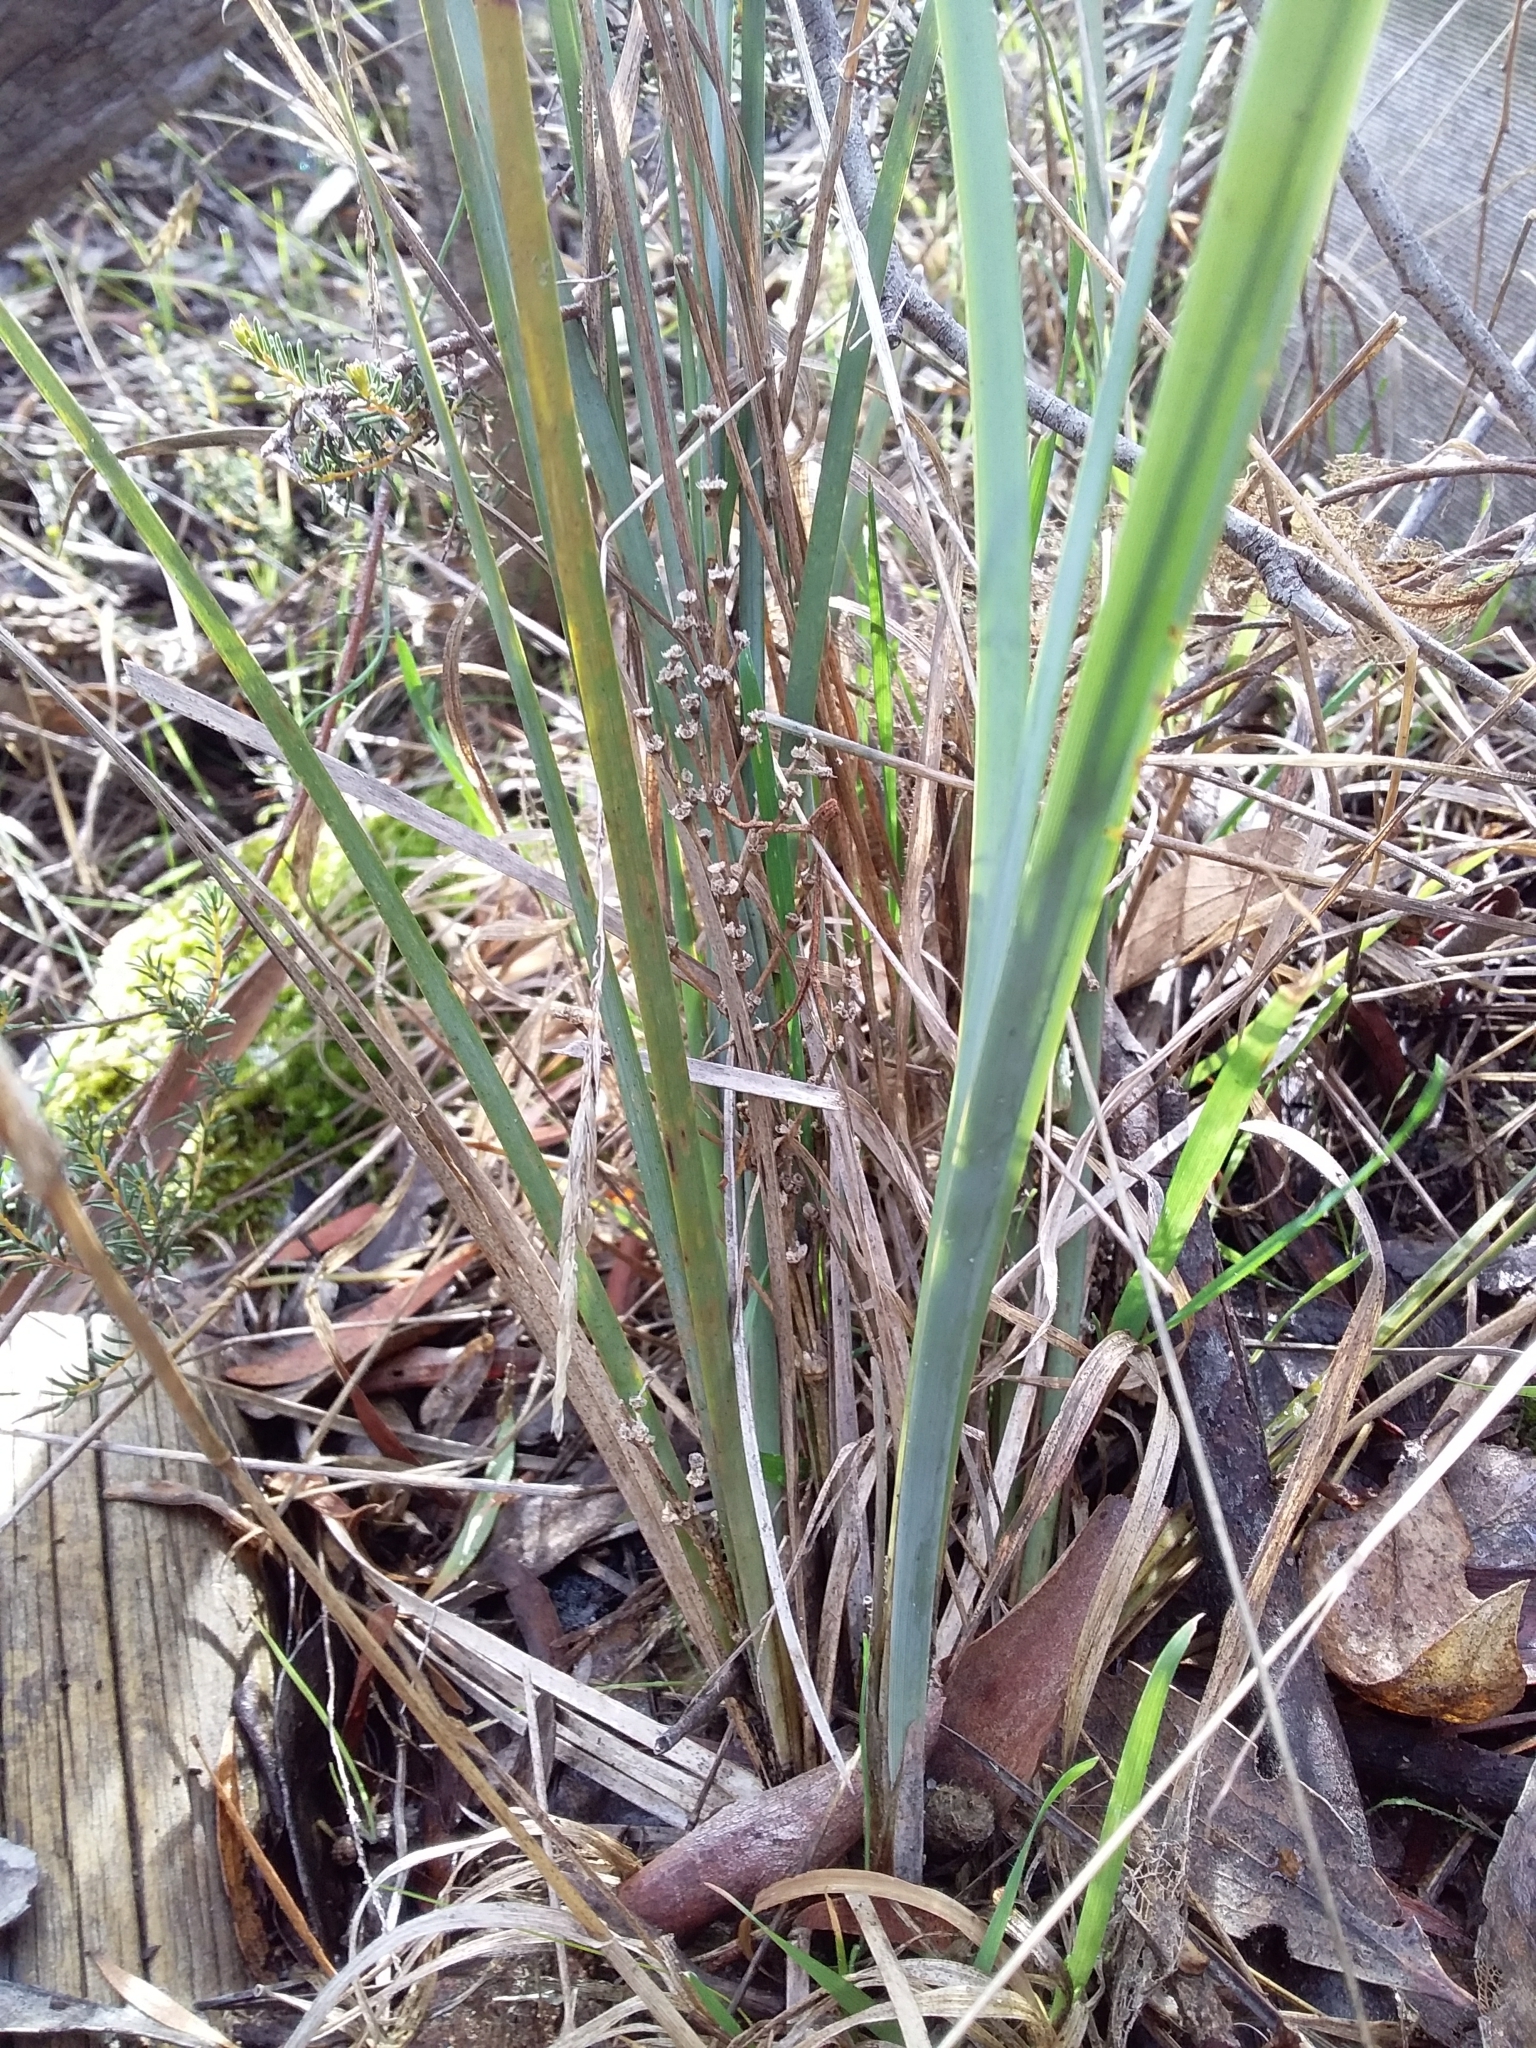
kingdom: Plantae
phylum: Tracheophyta
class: Liliopsida
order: Asparagales
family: Asparagaceae
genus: Lomandra
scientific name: Lomandra multiflora
